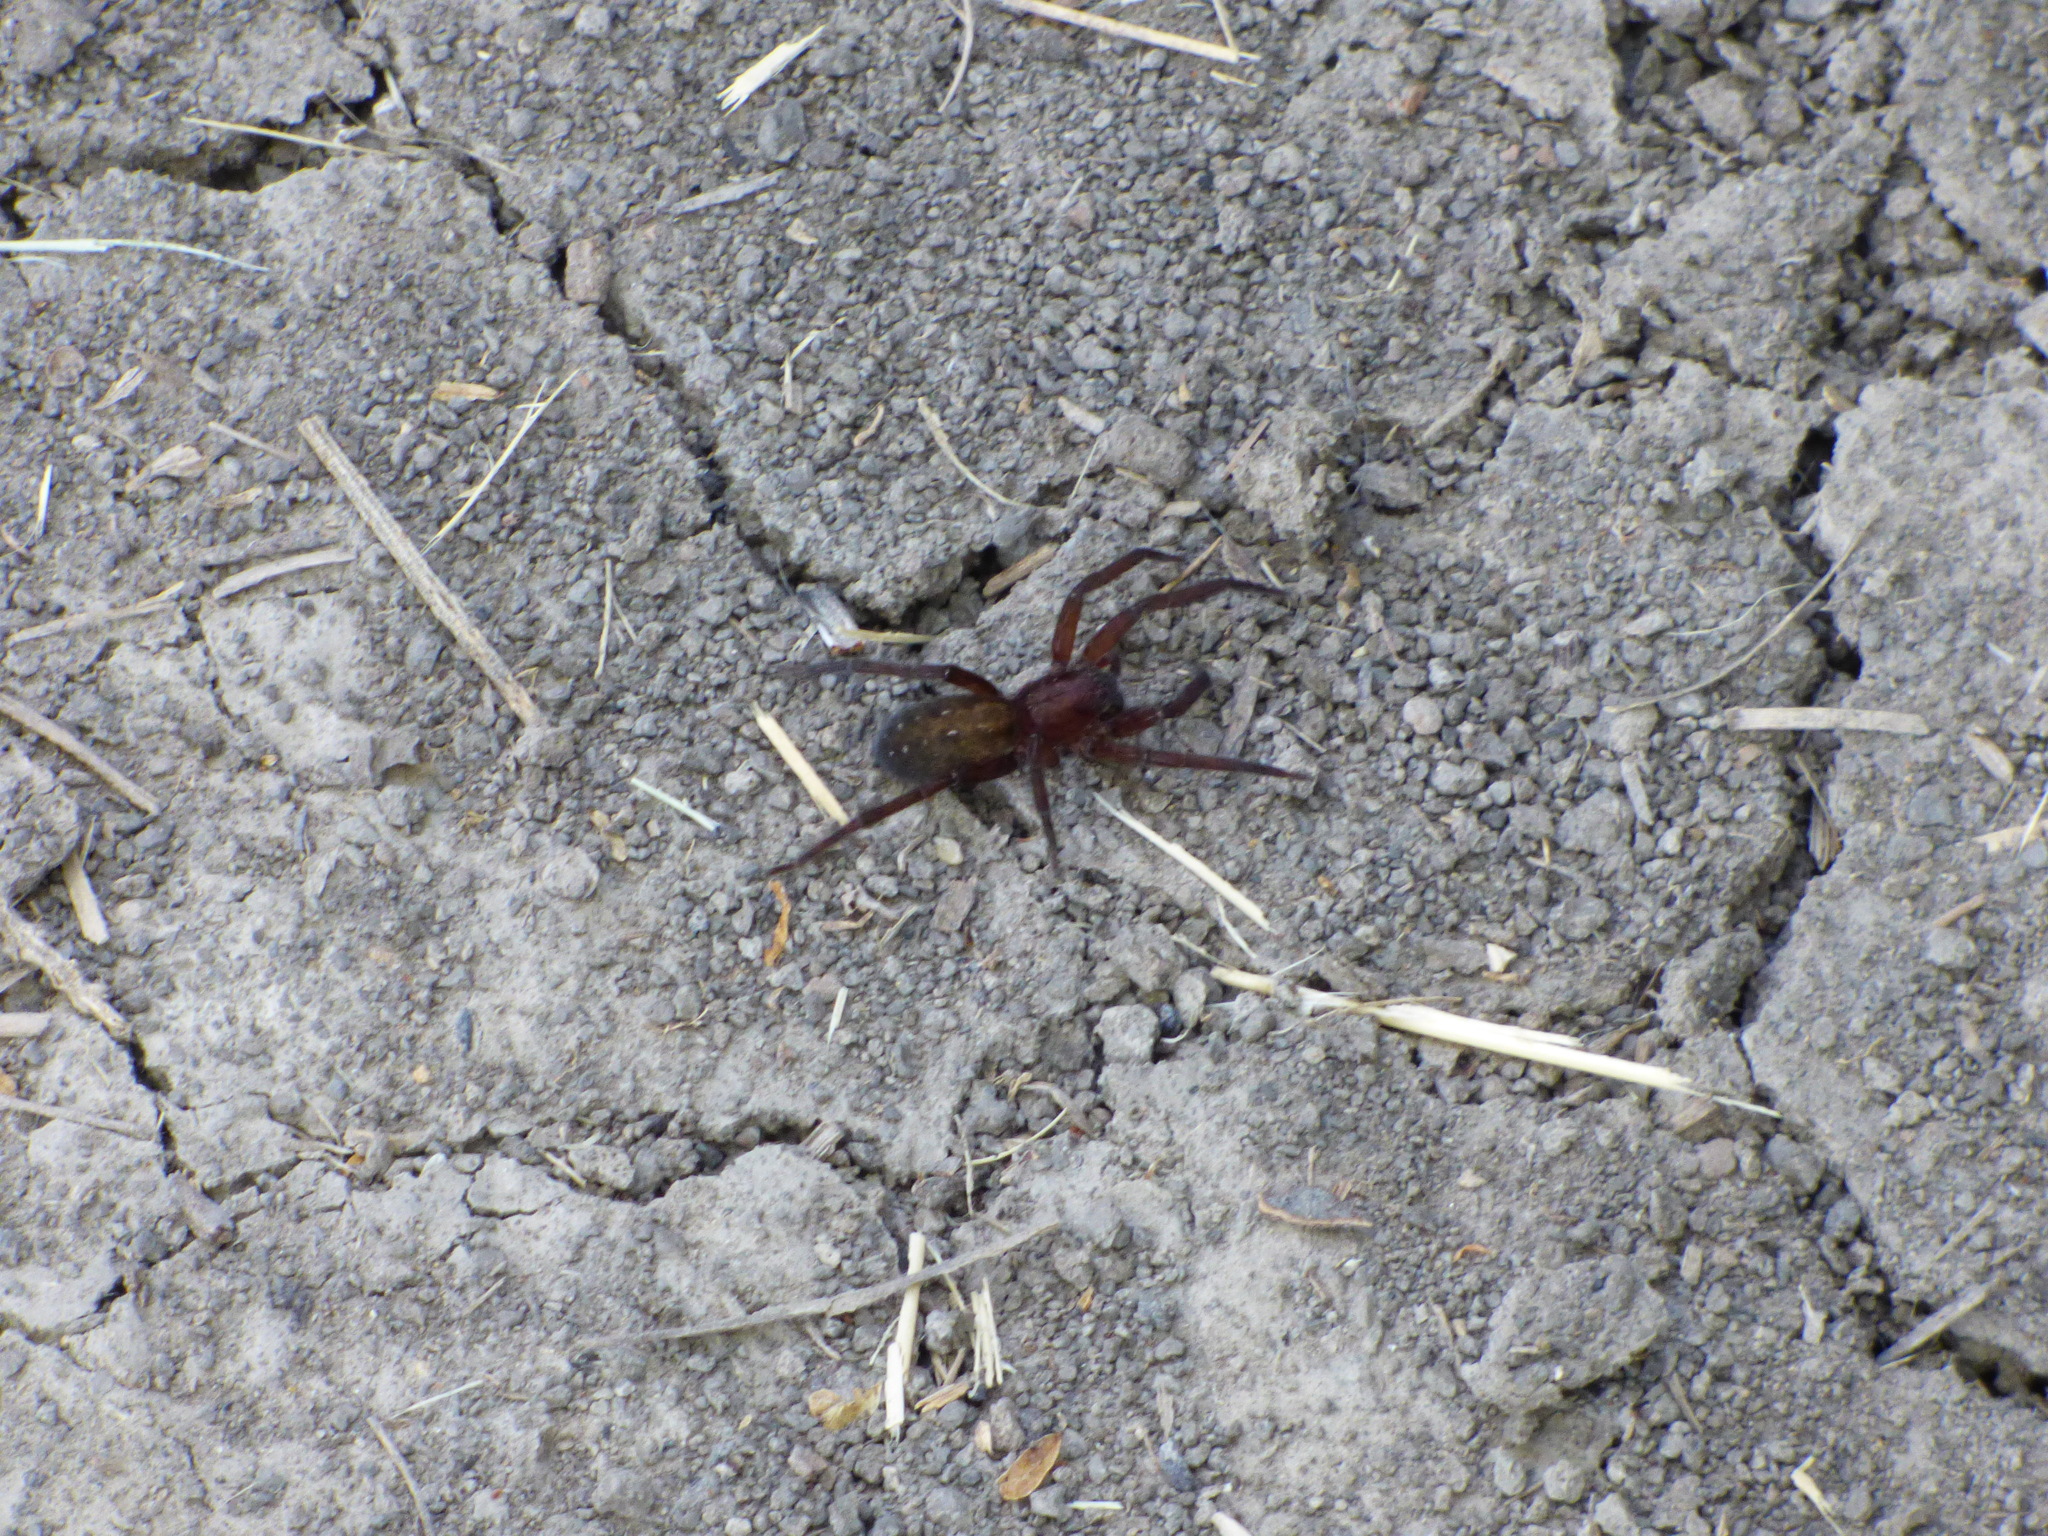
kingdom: Animalia
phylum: Arthropoda
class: Arachnida
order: Araneae
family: Ctenidae
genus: Asthenoctenus
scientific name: Asthenoctenus borellii
